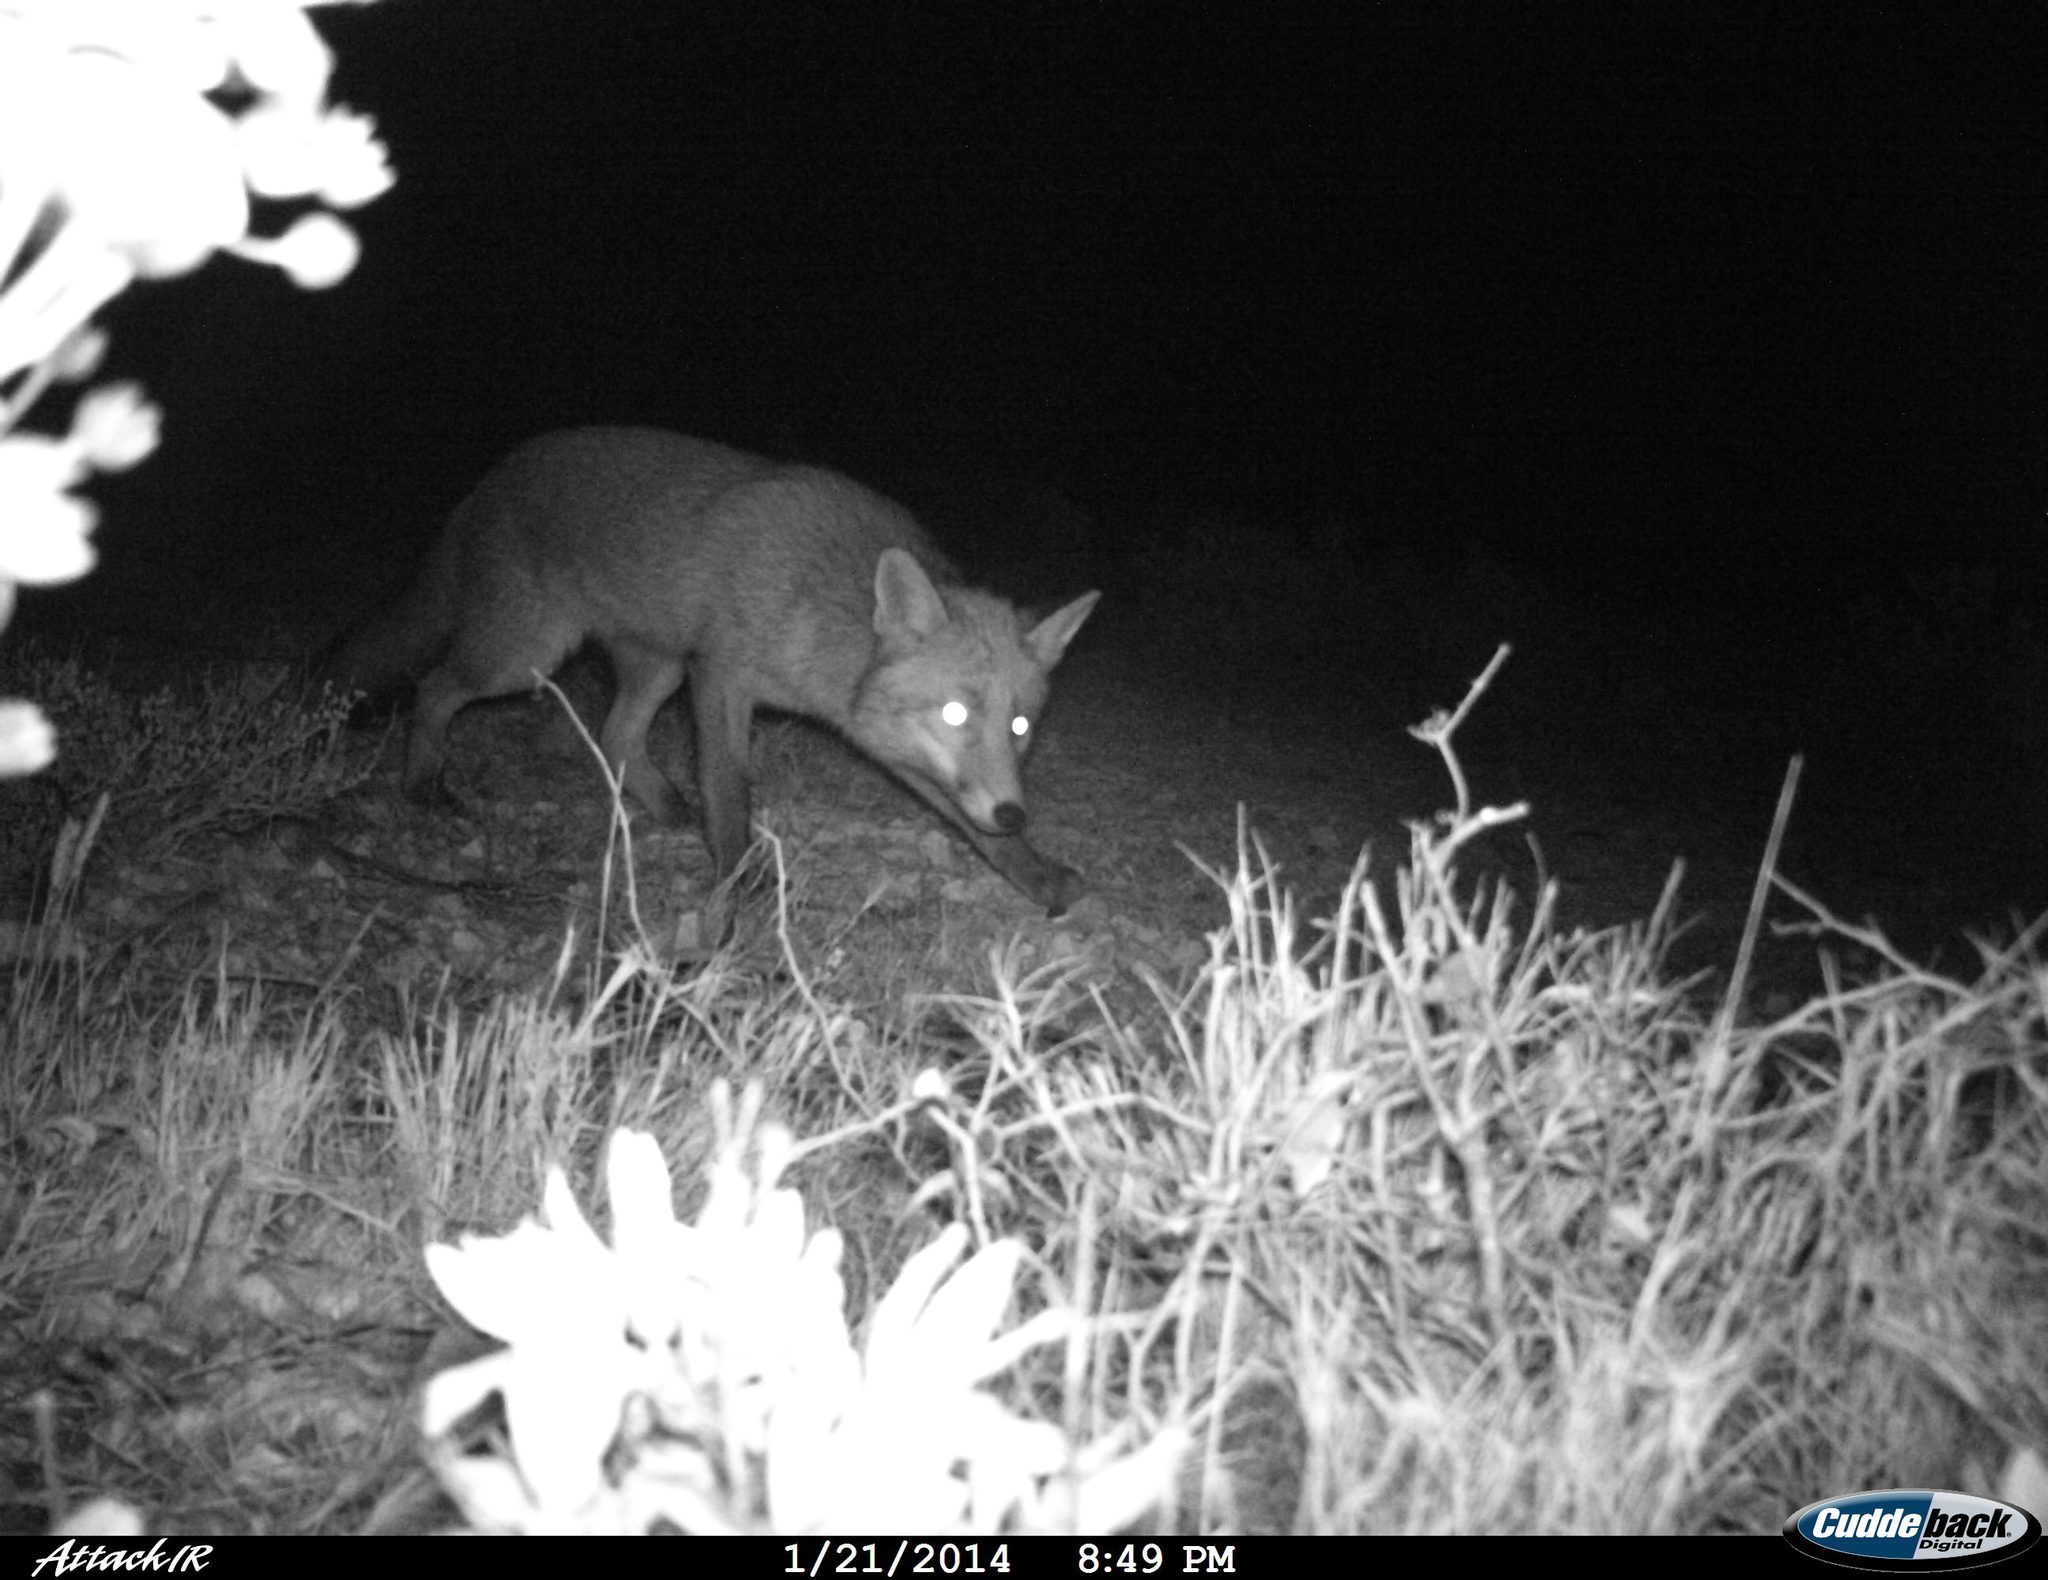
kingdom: Animalia
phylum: Chordata
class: Mammalia
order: Carnivora
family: Canidae
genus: Vulpes
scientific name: Vulpes vulpes
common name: Red fox
